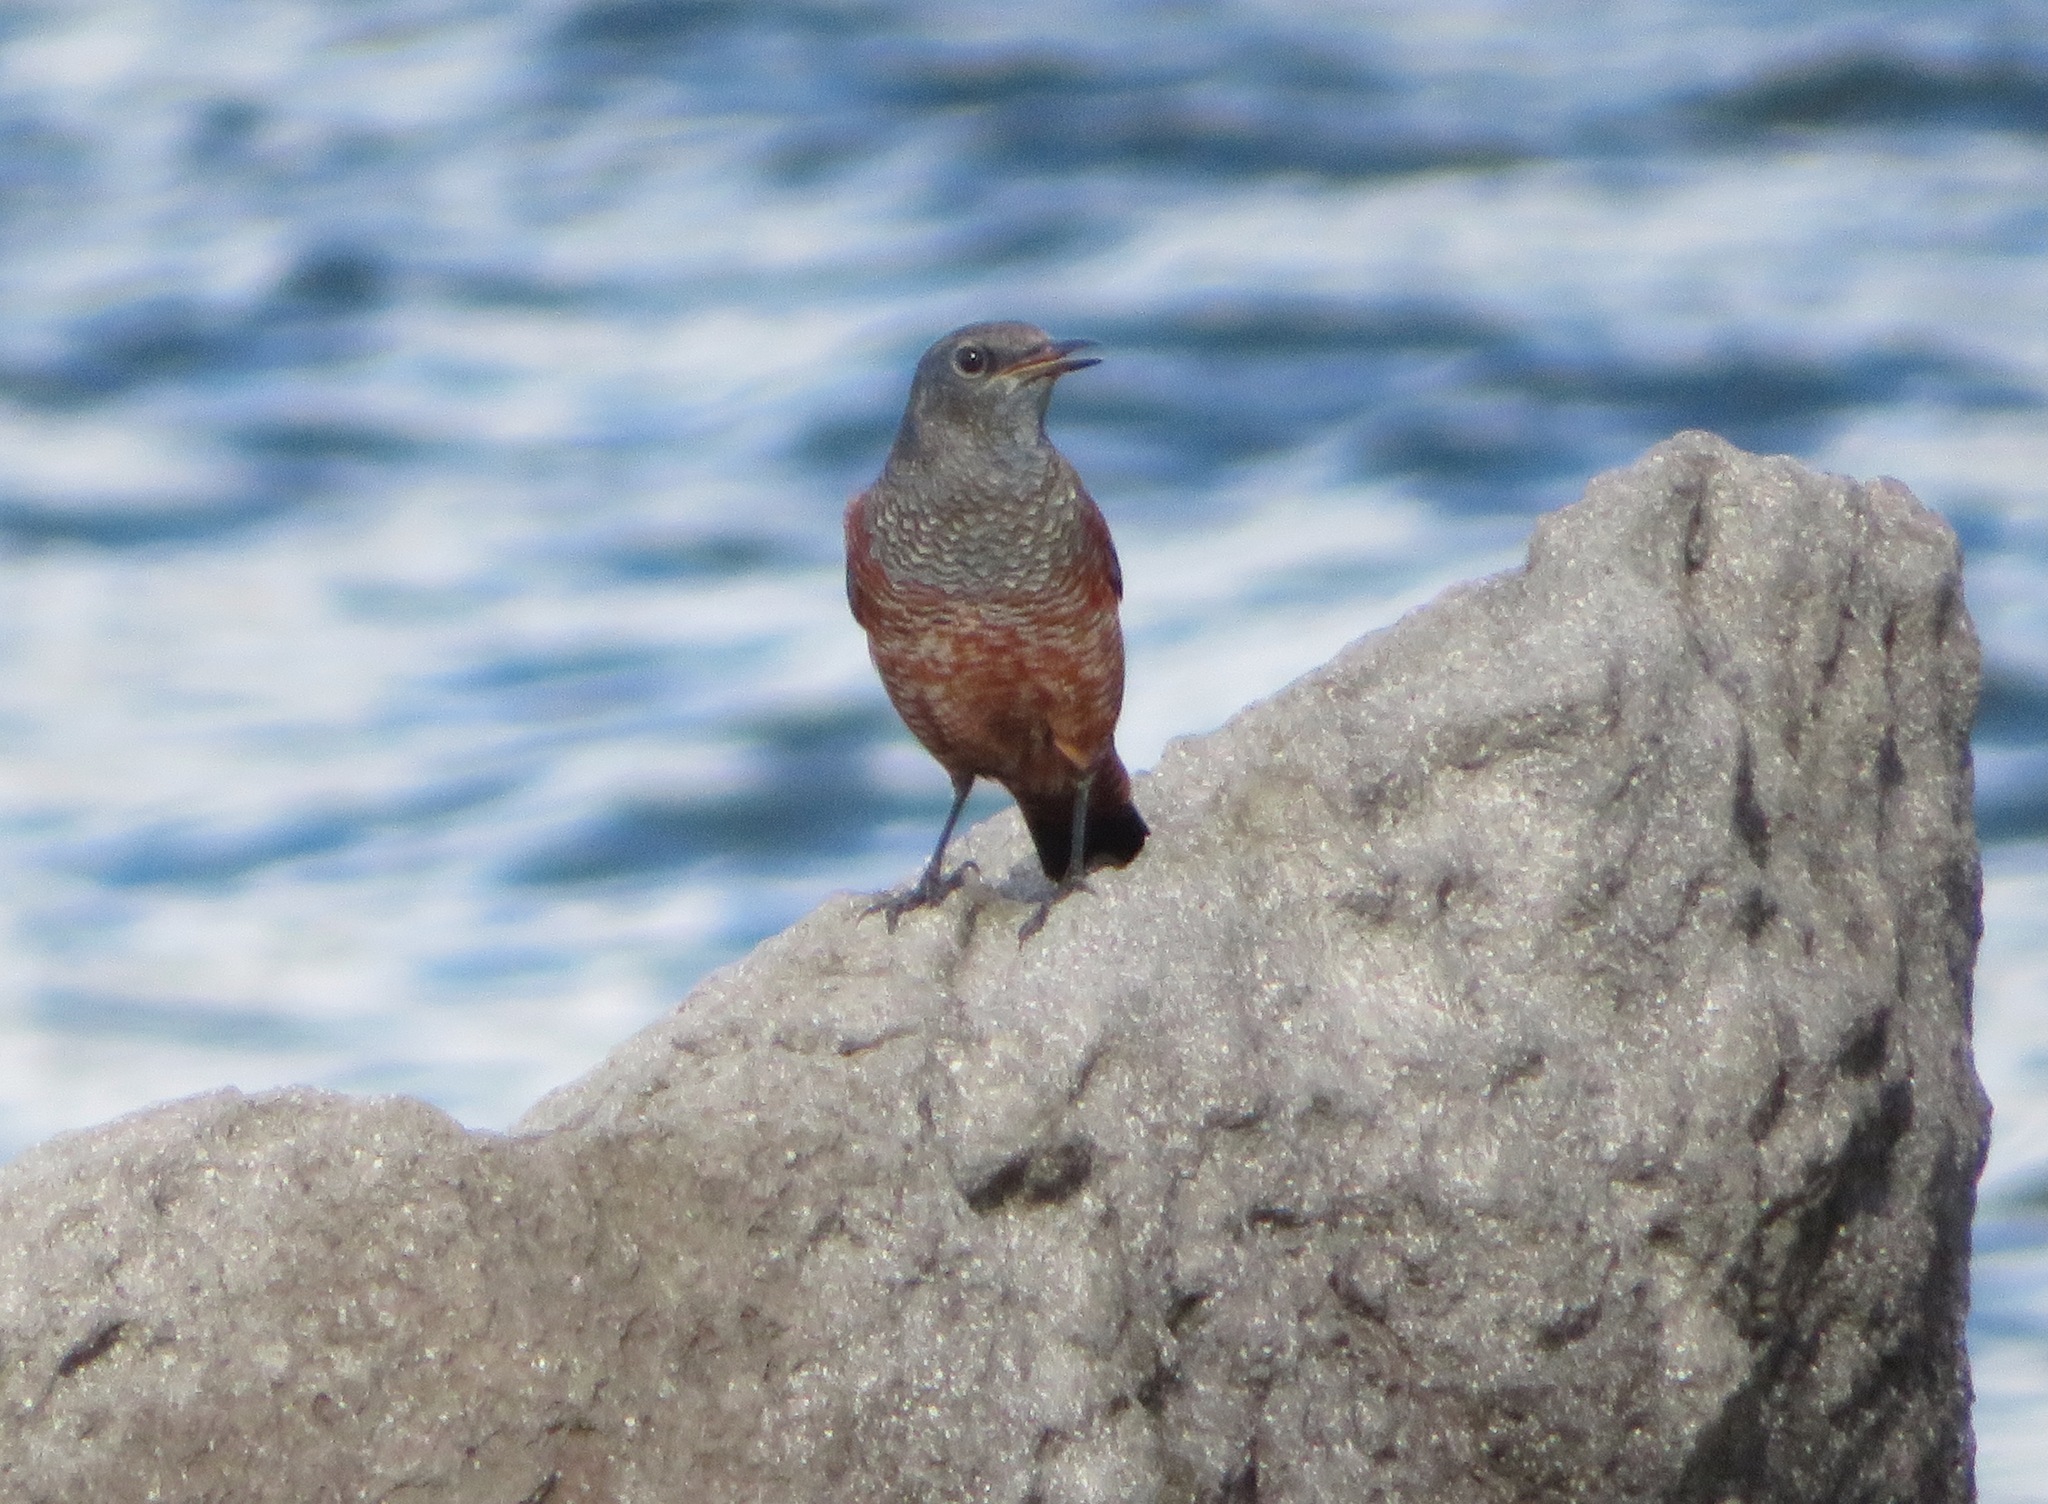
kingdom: Animalia
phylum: Chordata
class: Aves
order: Passeriformes
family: Muscicapidae
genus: Monticola
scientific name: Monticola solitarius
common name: Blue rock thrush
